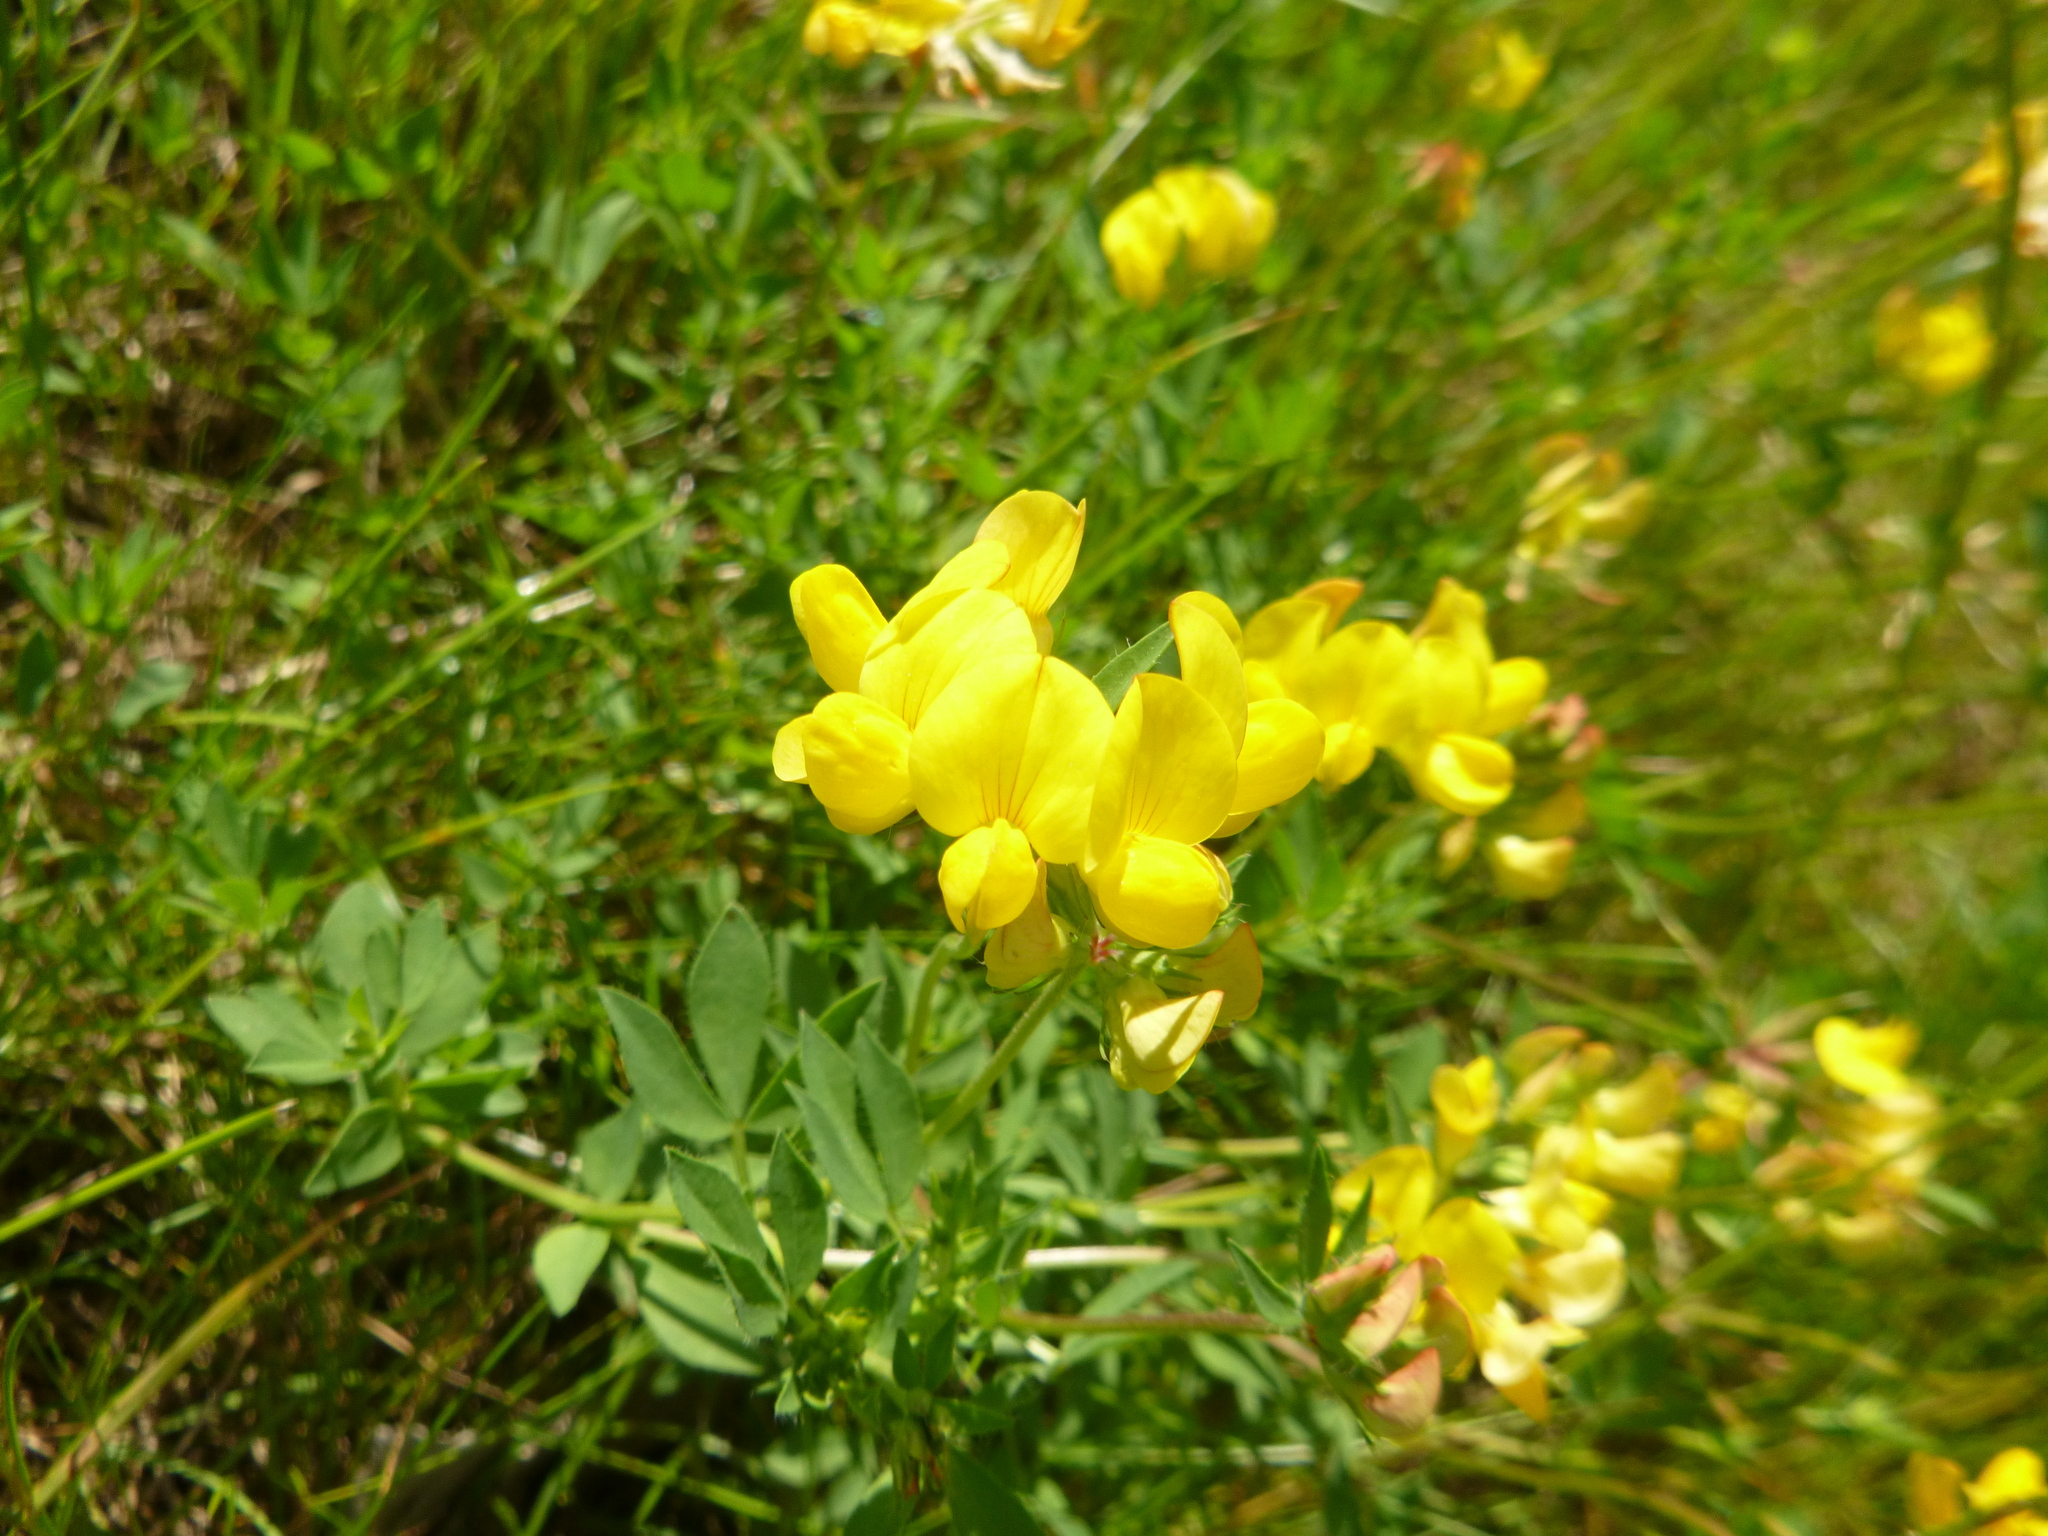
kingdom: Plantae
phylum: Tracheophyta
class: Magnoliopsida
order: Fabales
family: Fabaceae
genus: Lotus
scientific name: Lotus corniculatus
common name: Common bird's-foot-trefoil
